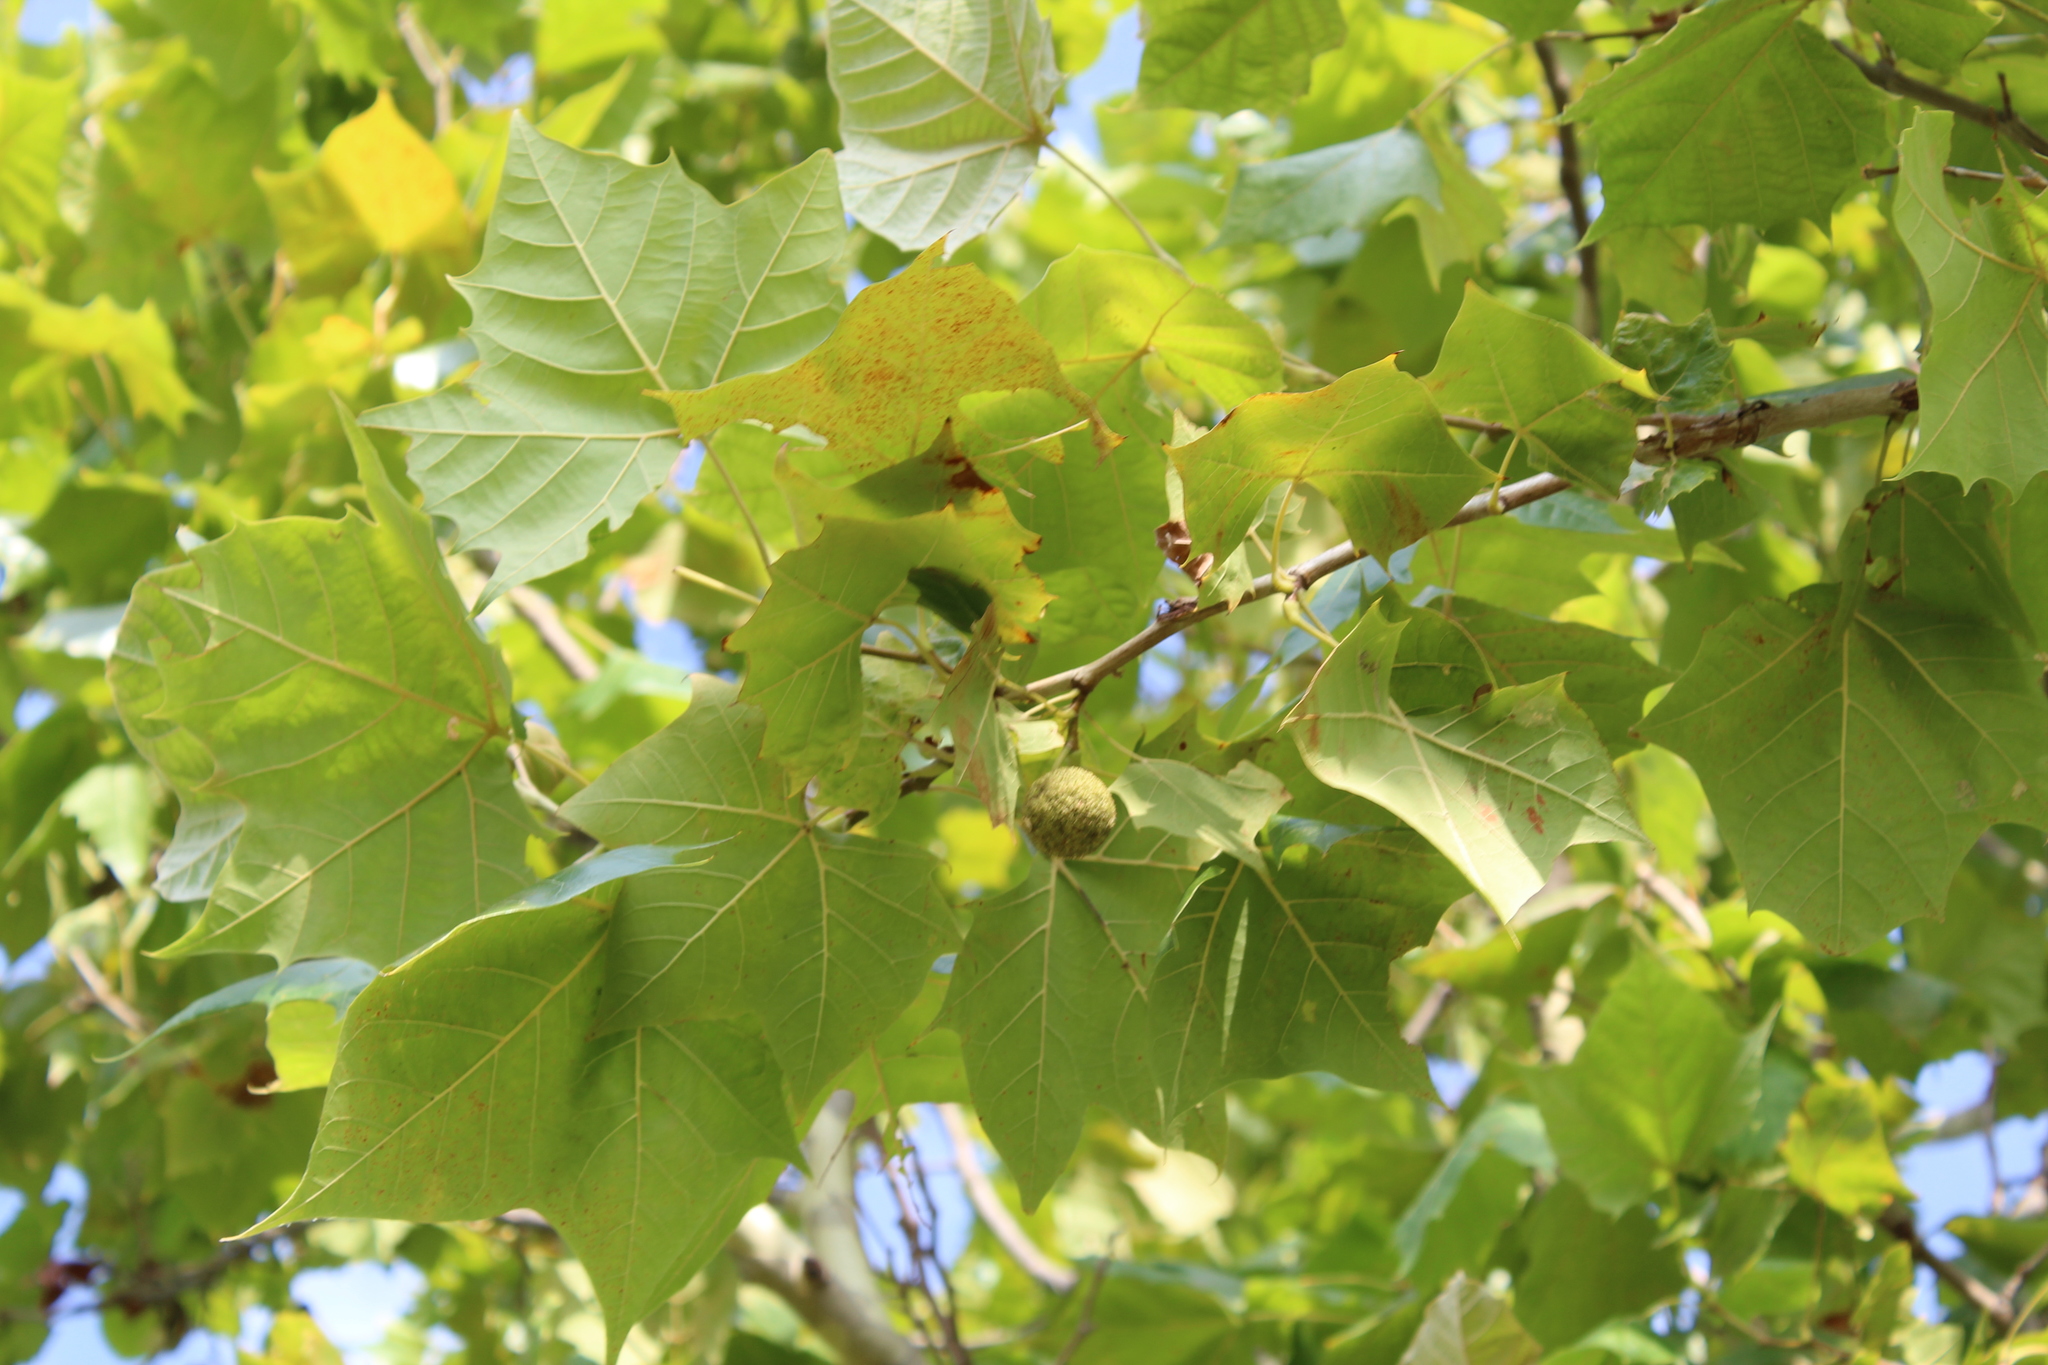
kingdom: Plantae
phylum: Tracheophyta
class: Magnoliopsida
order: Proteales
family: Platanaceae
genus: Platanus
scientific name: Platanus occidentalis
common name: American sycamore
